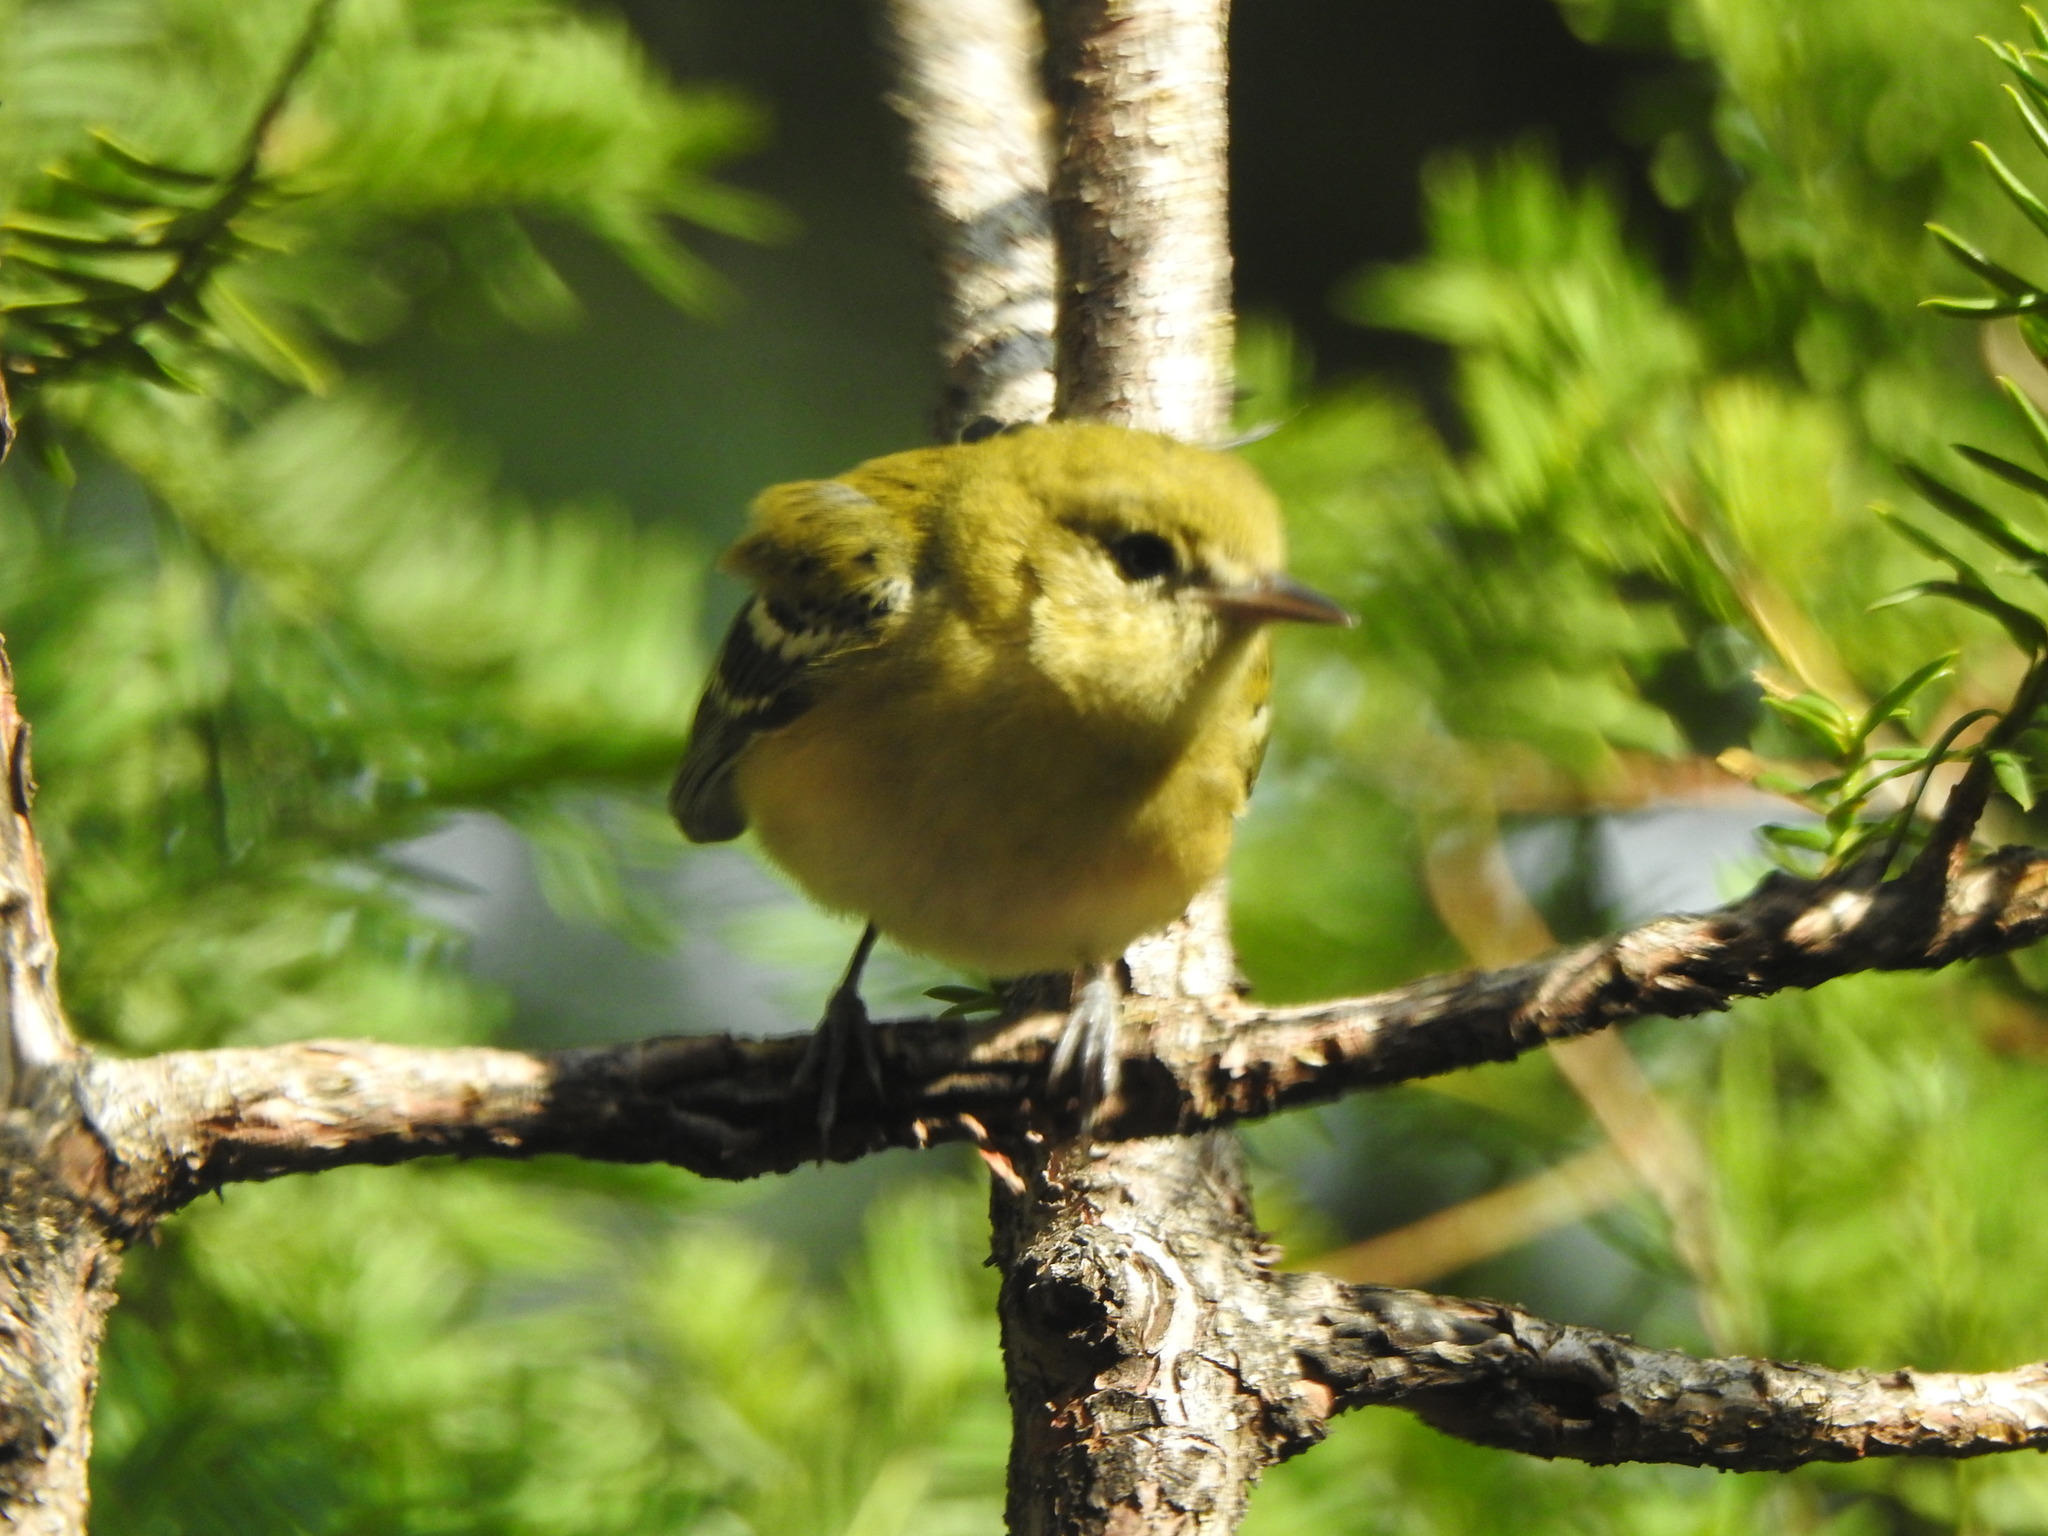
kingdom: Animalia
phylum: Chordata
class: Aves
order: Passeriformes
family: Parulidae
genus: Setophaga
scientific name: Setophaga castanea
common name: Bay-breasted warbler
